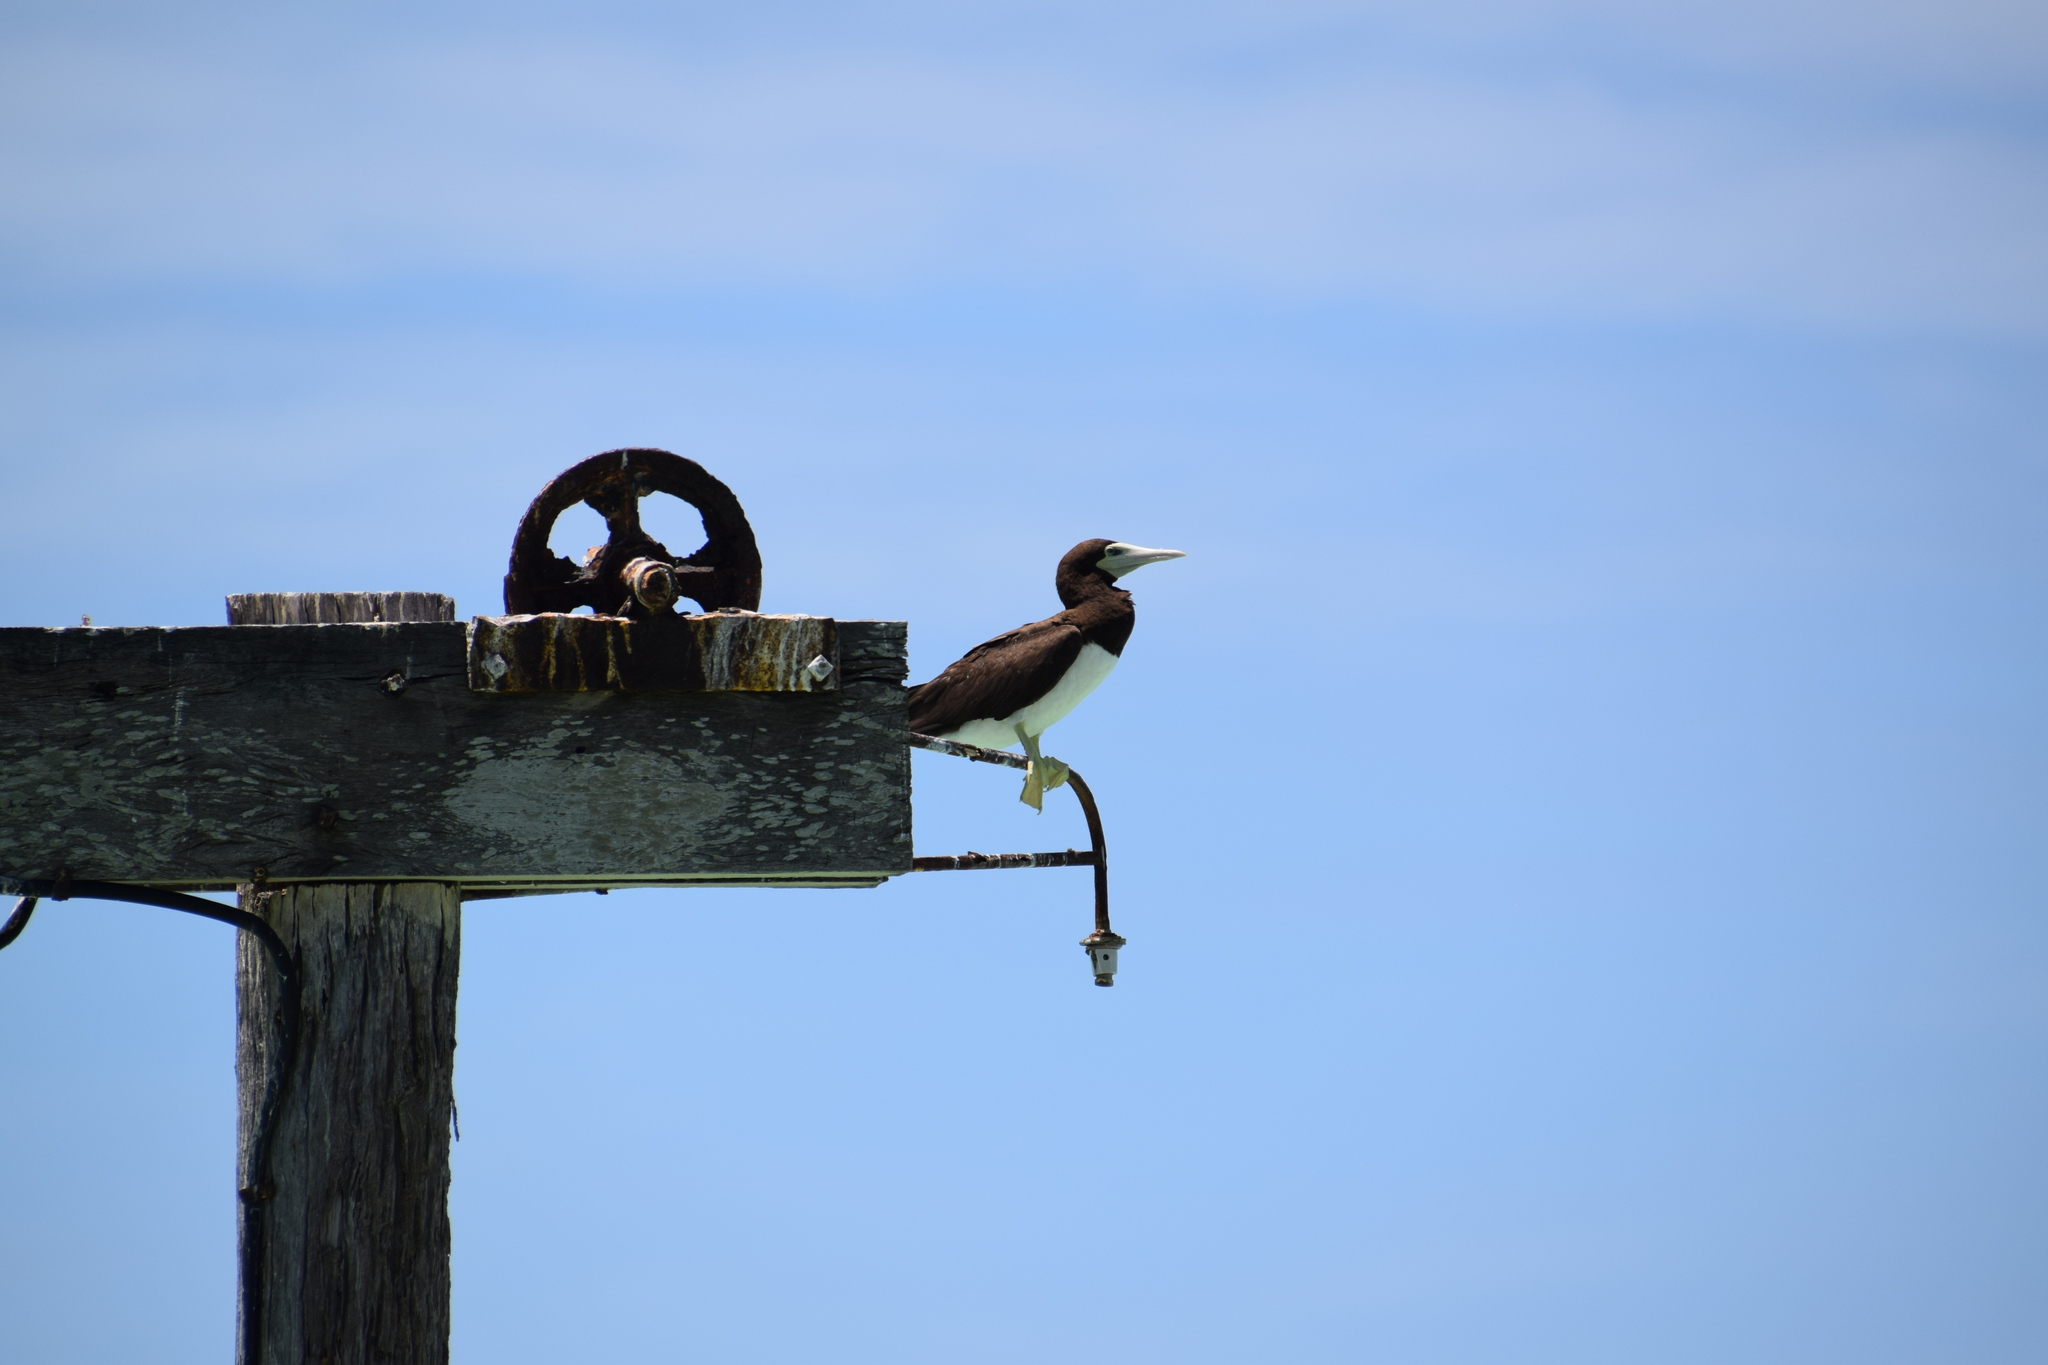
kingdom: Animalia
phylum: Chordata
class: Aves
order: Suliformes
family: Sulidae
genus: Sula
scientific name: Sula leucogaster
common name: Brown booby
